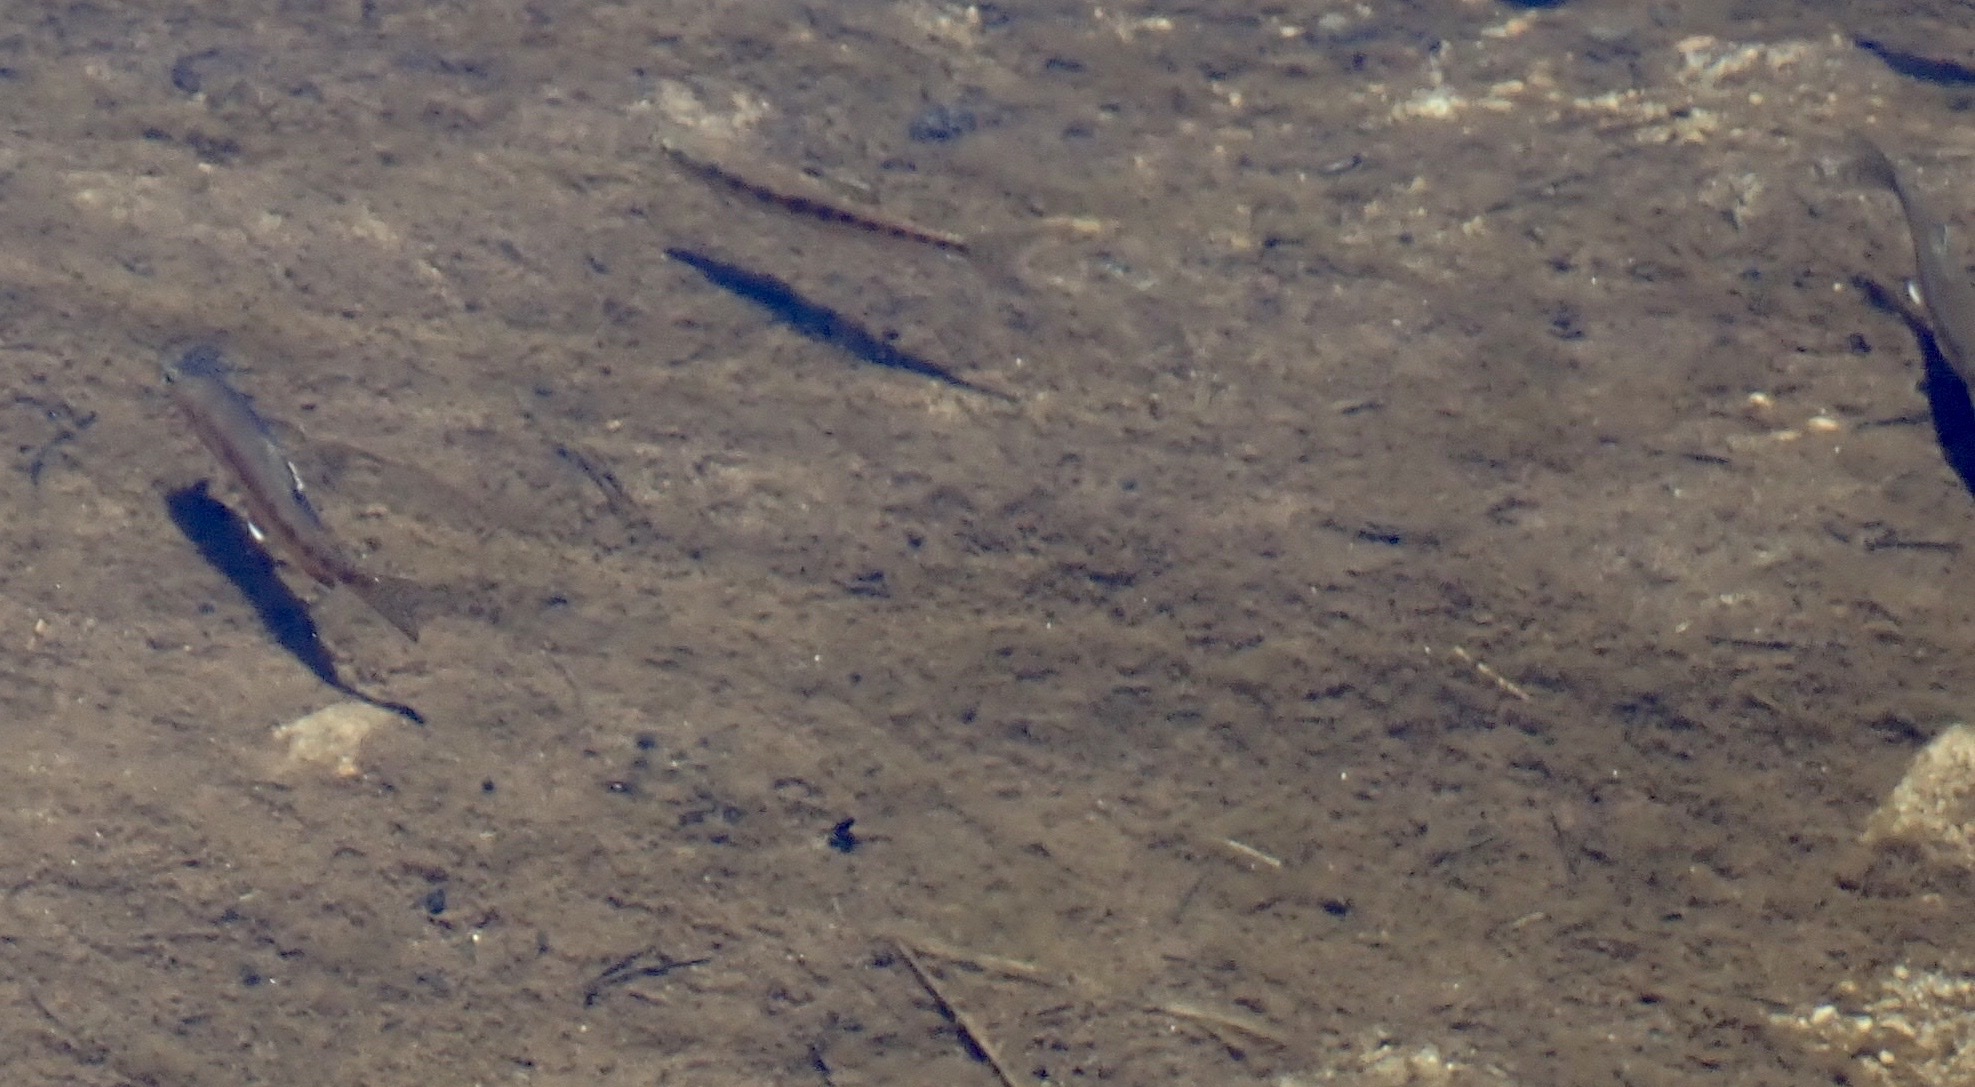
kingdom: Animalia
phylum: Chordata
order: Salmoniformes
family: Salmonidae
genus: Oncorhynchus
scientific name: Oncorhynchus aguabonita
